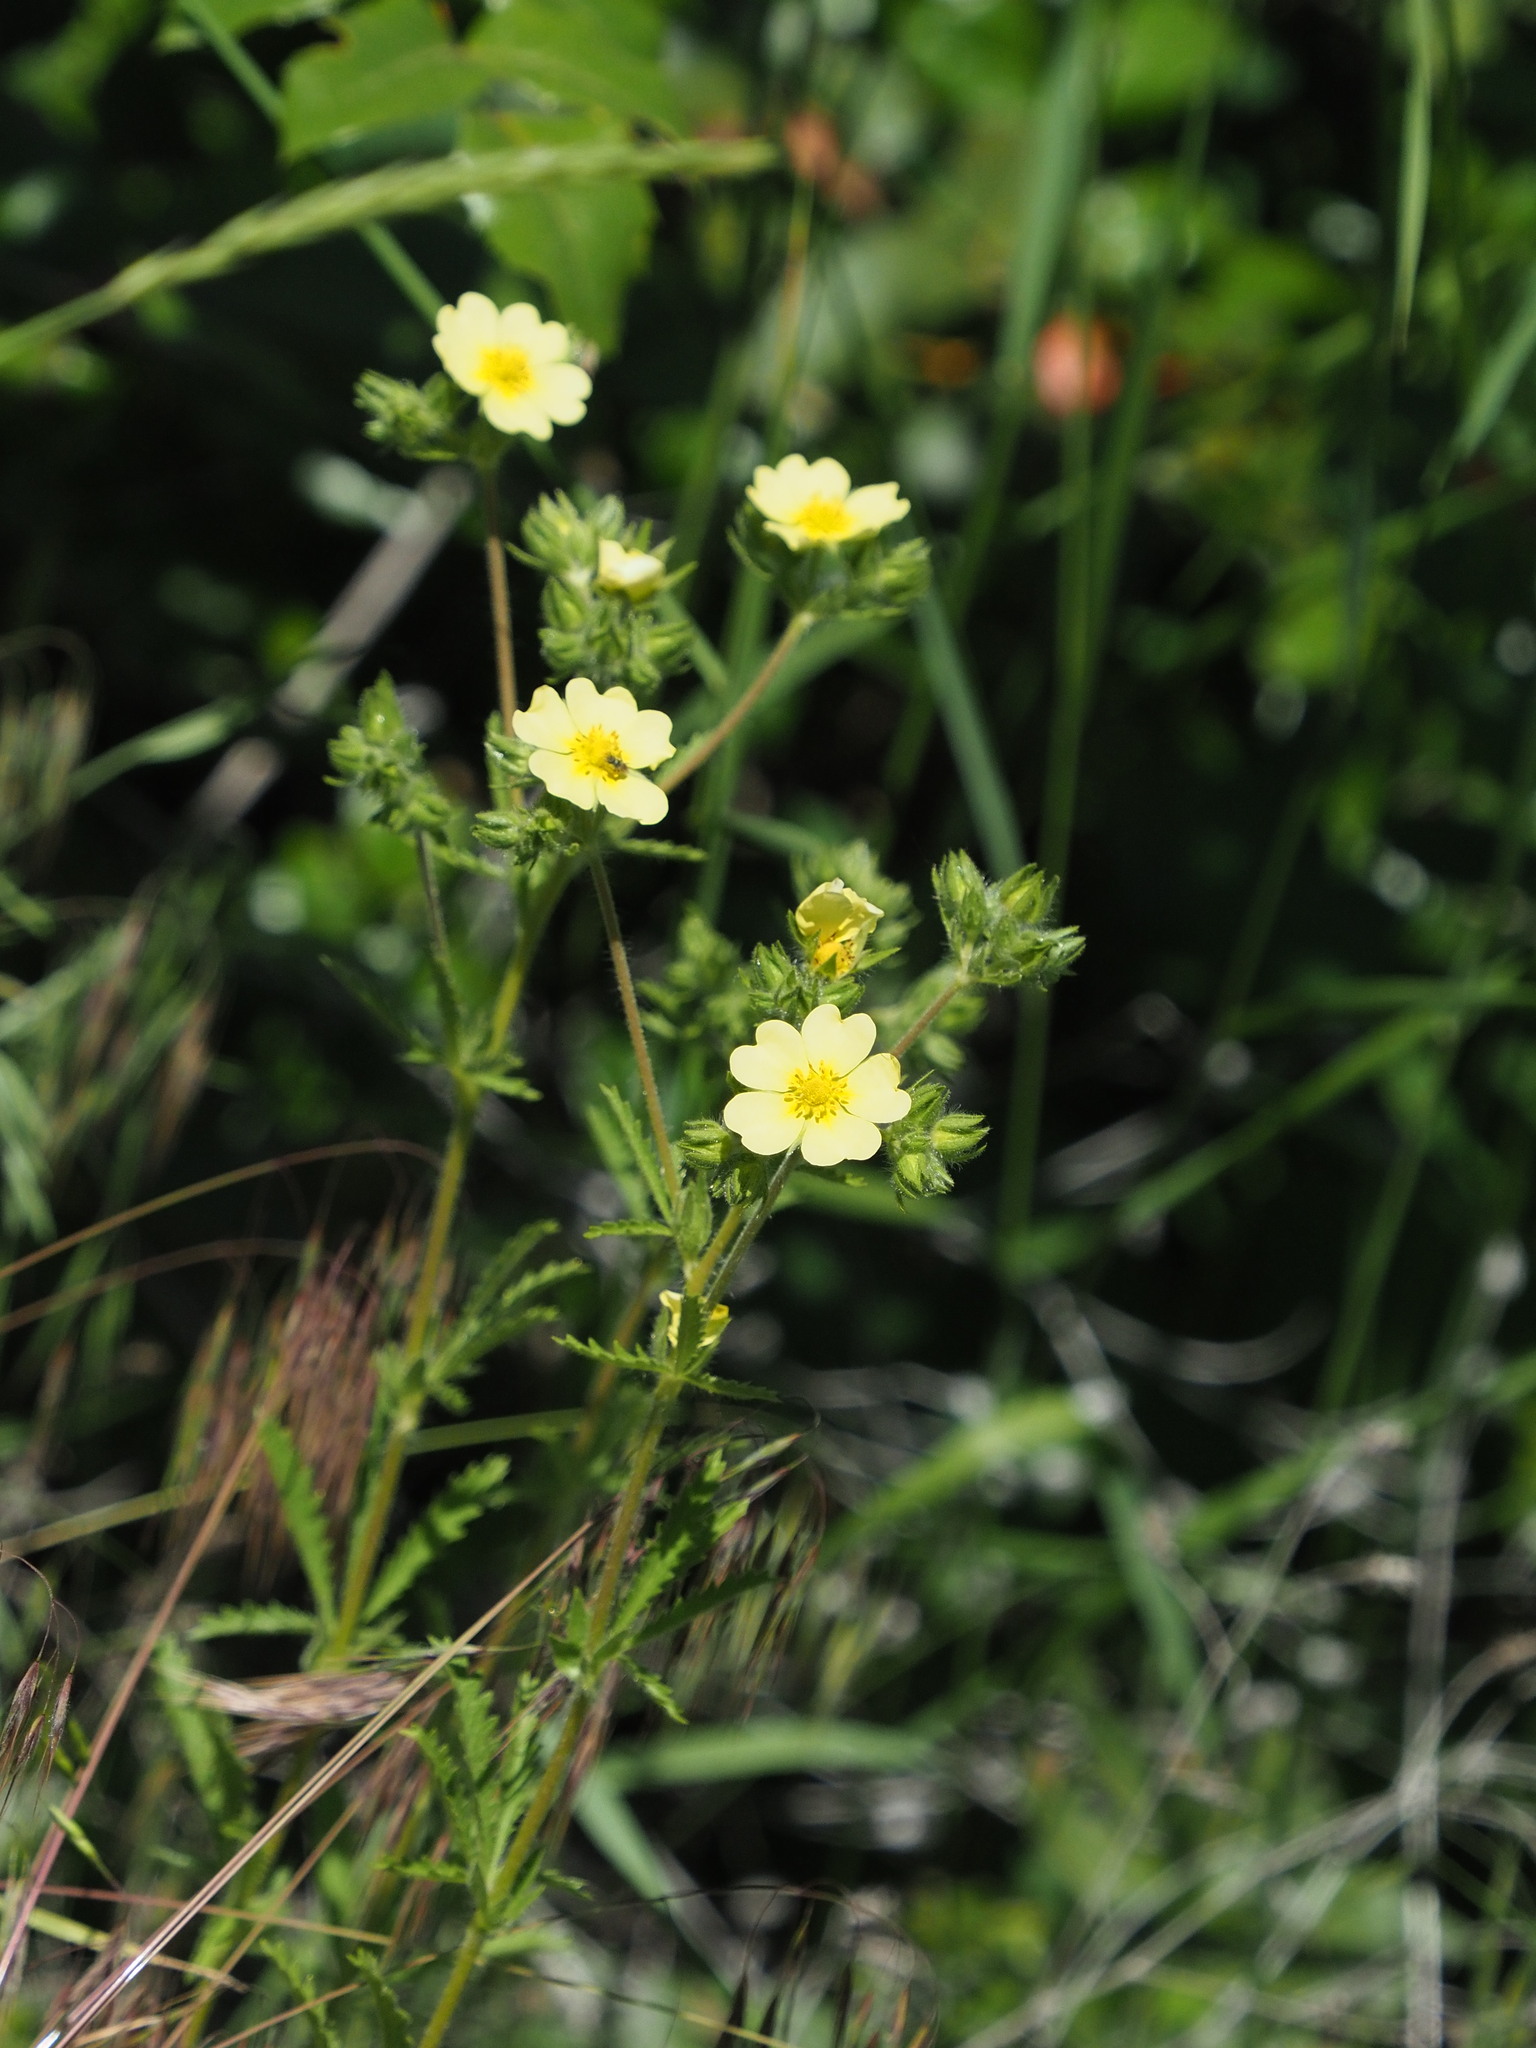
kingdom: Plantae
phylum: Tracheophyta
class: Magnoliopsida
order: Rosales
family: Rosaceae
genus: Potentilla
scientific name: Potentilla recta
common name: Sulphur cinquefoil
